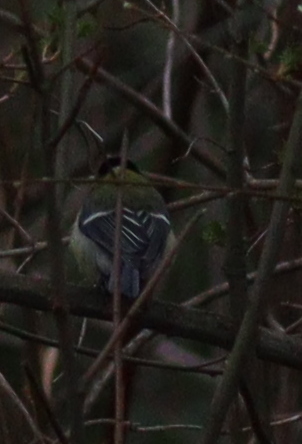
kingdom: Animalia
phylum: Chordata
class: Aves
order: Passeriformes
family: Paridae
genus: Parus
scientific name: Parus major
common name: Great tit
